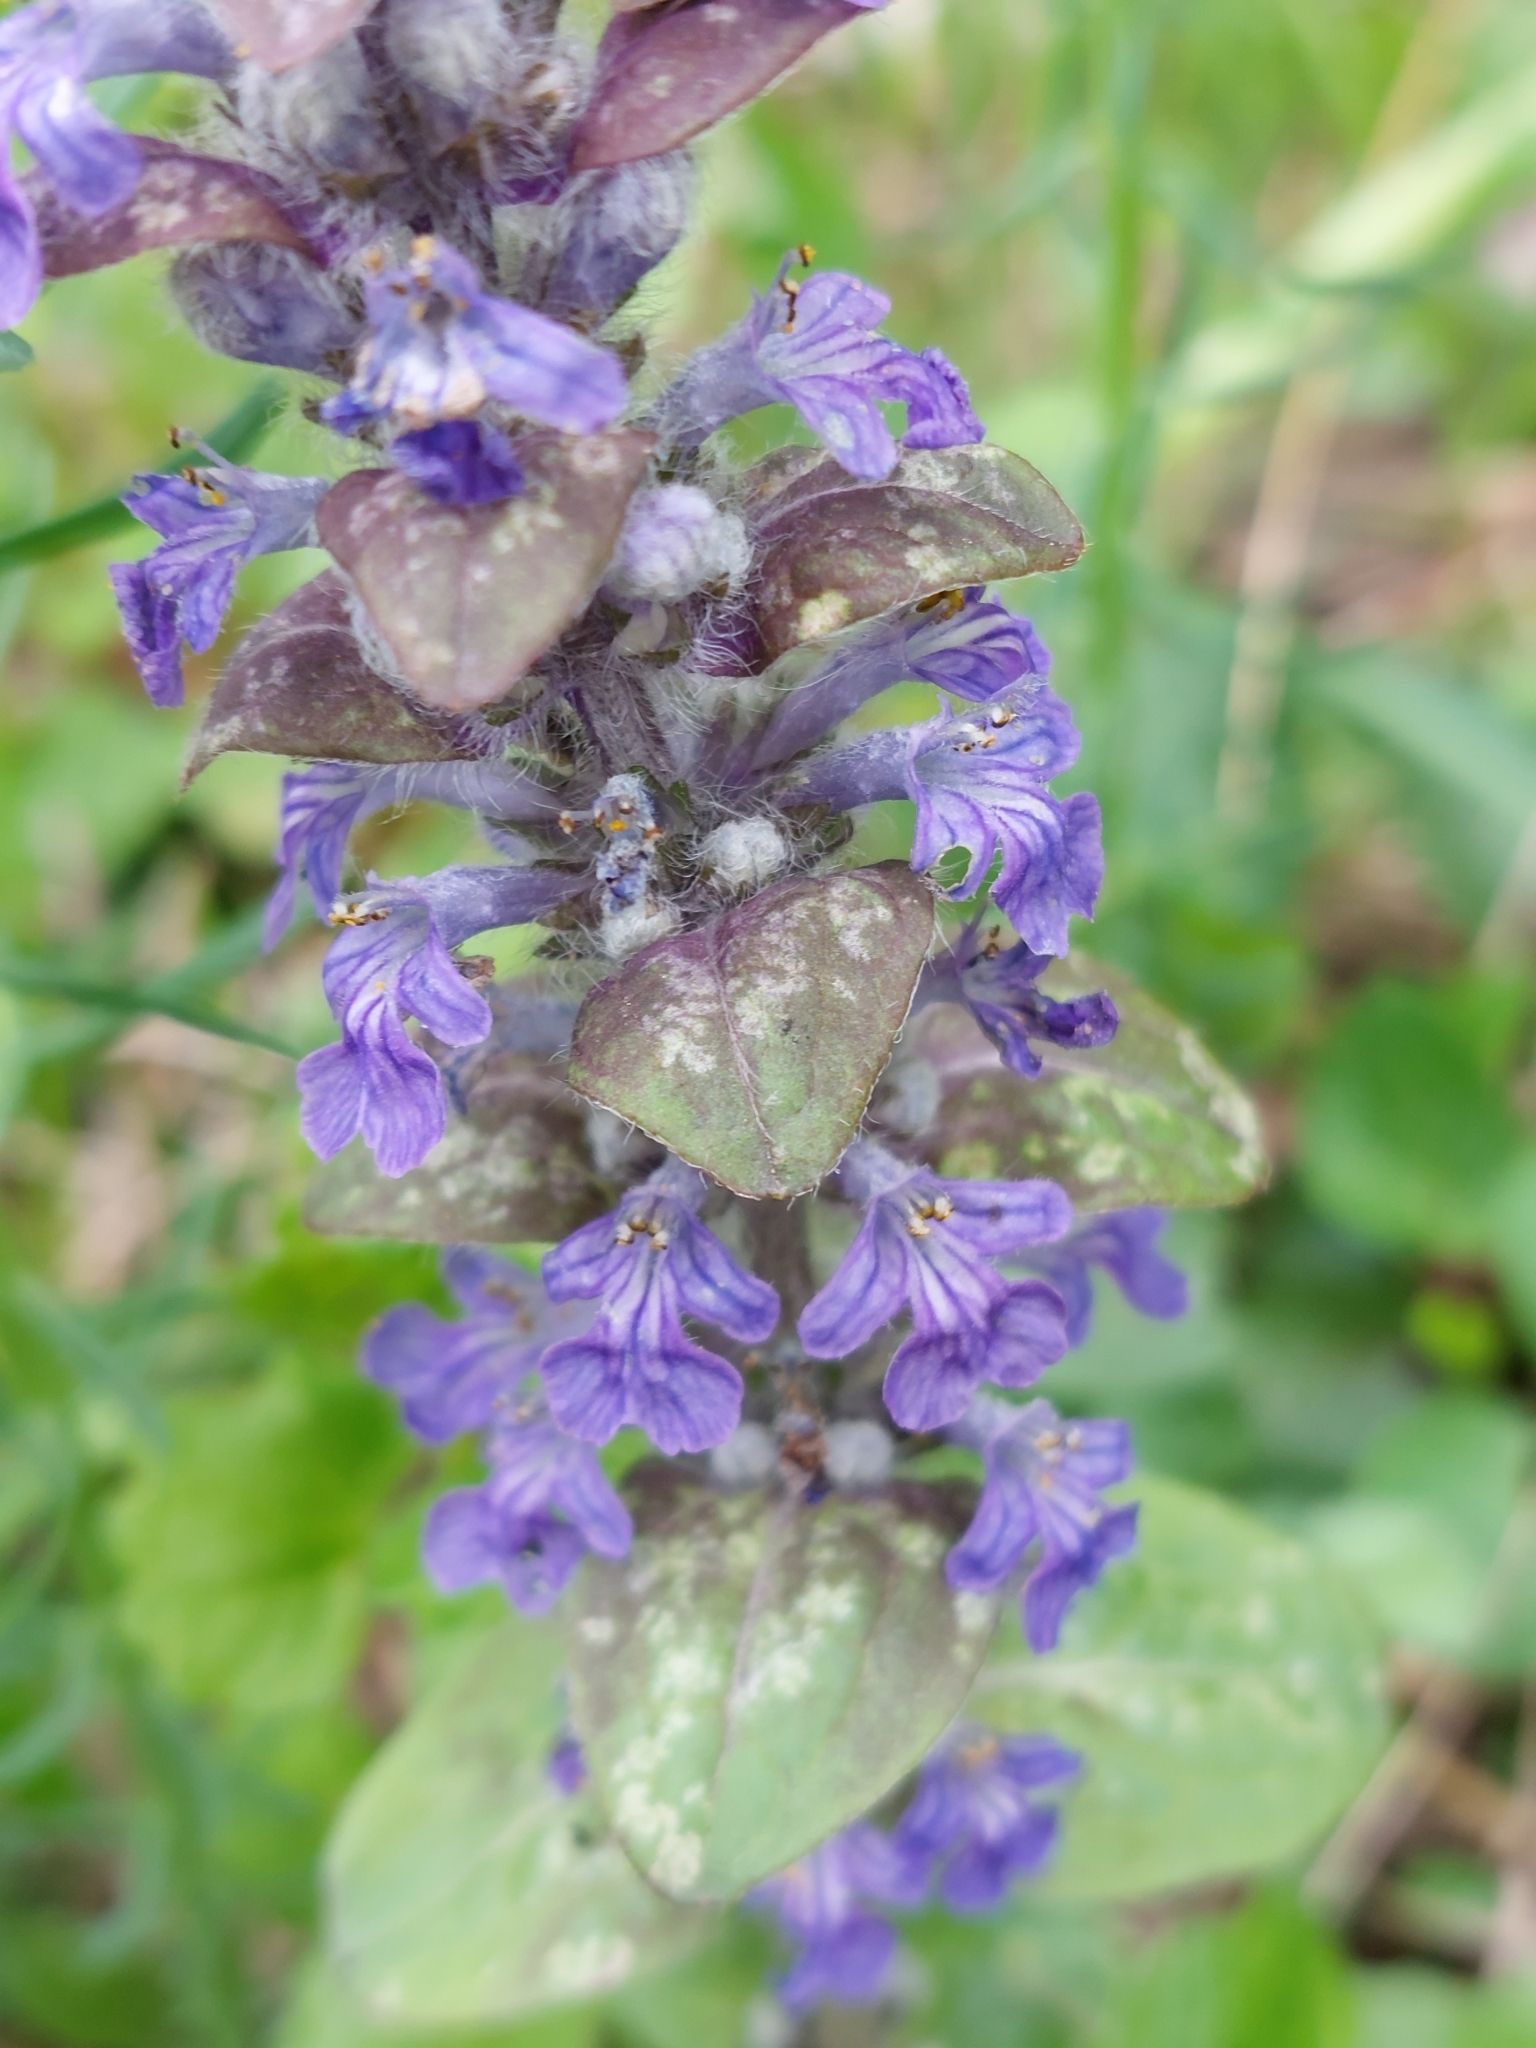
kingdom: Plantae
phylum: Tracheophyta
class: Magnoliopsida
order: Lamiales
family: Lamiaceae
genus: Ajuga
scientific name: Ajuga reptans
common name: Bugle
